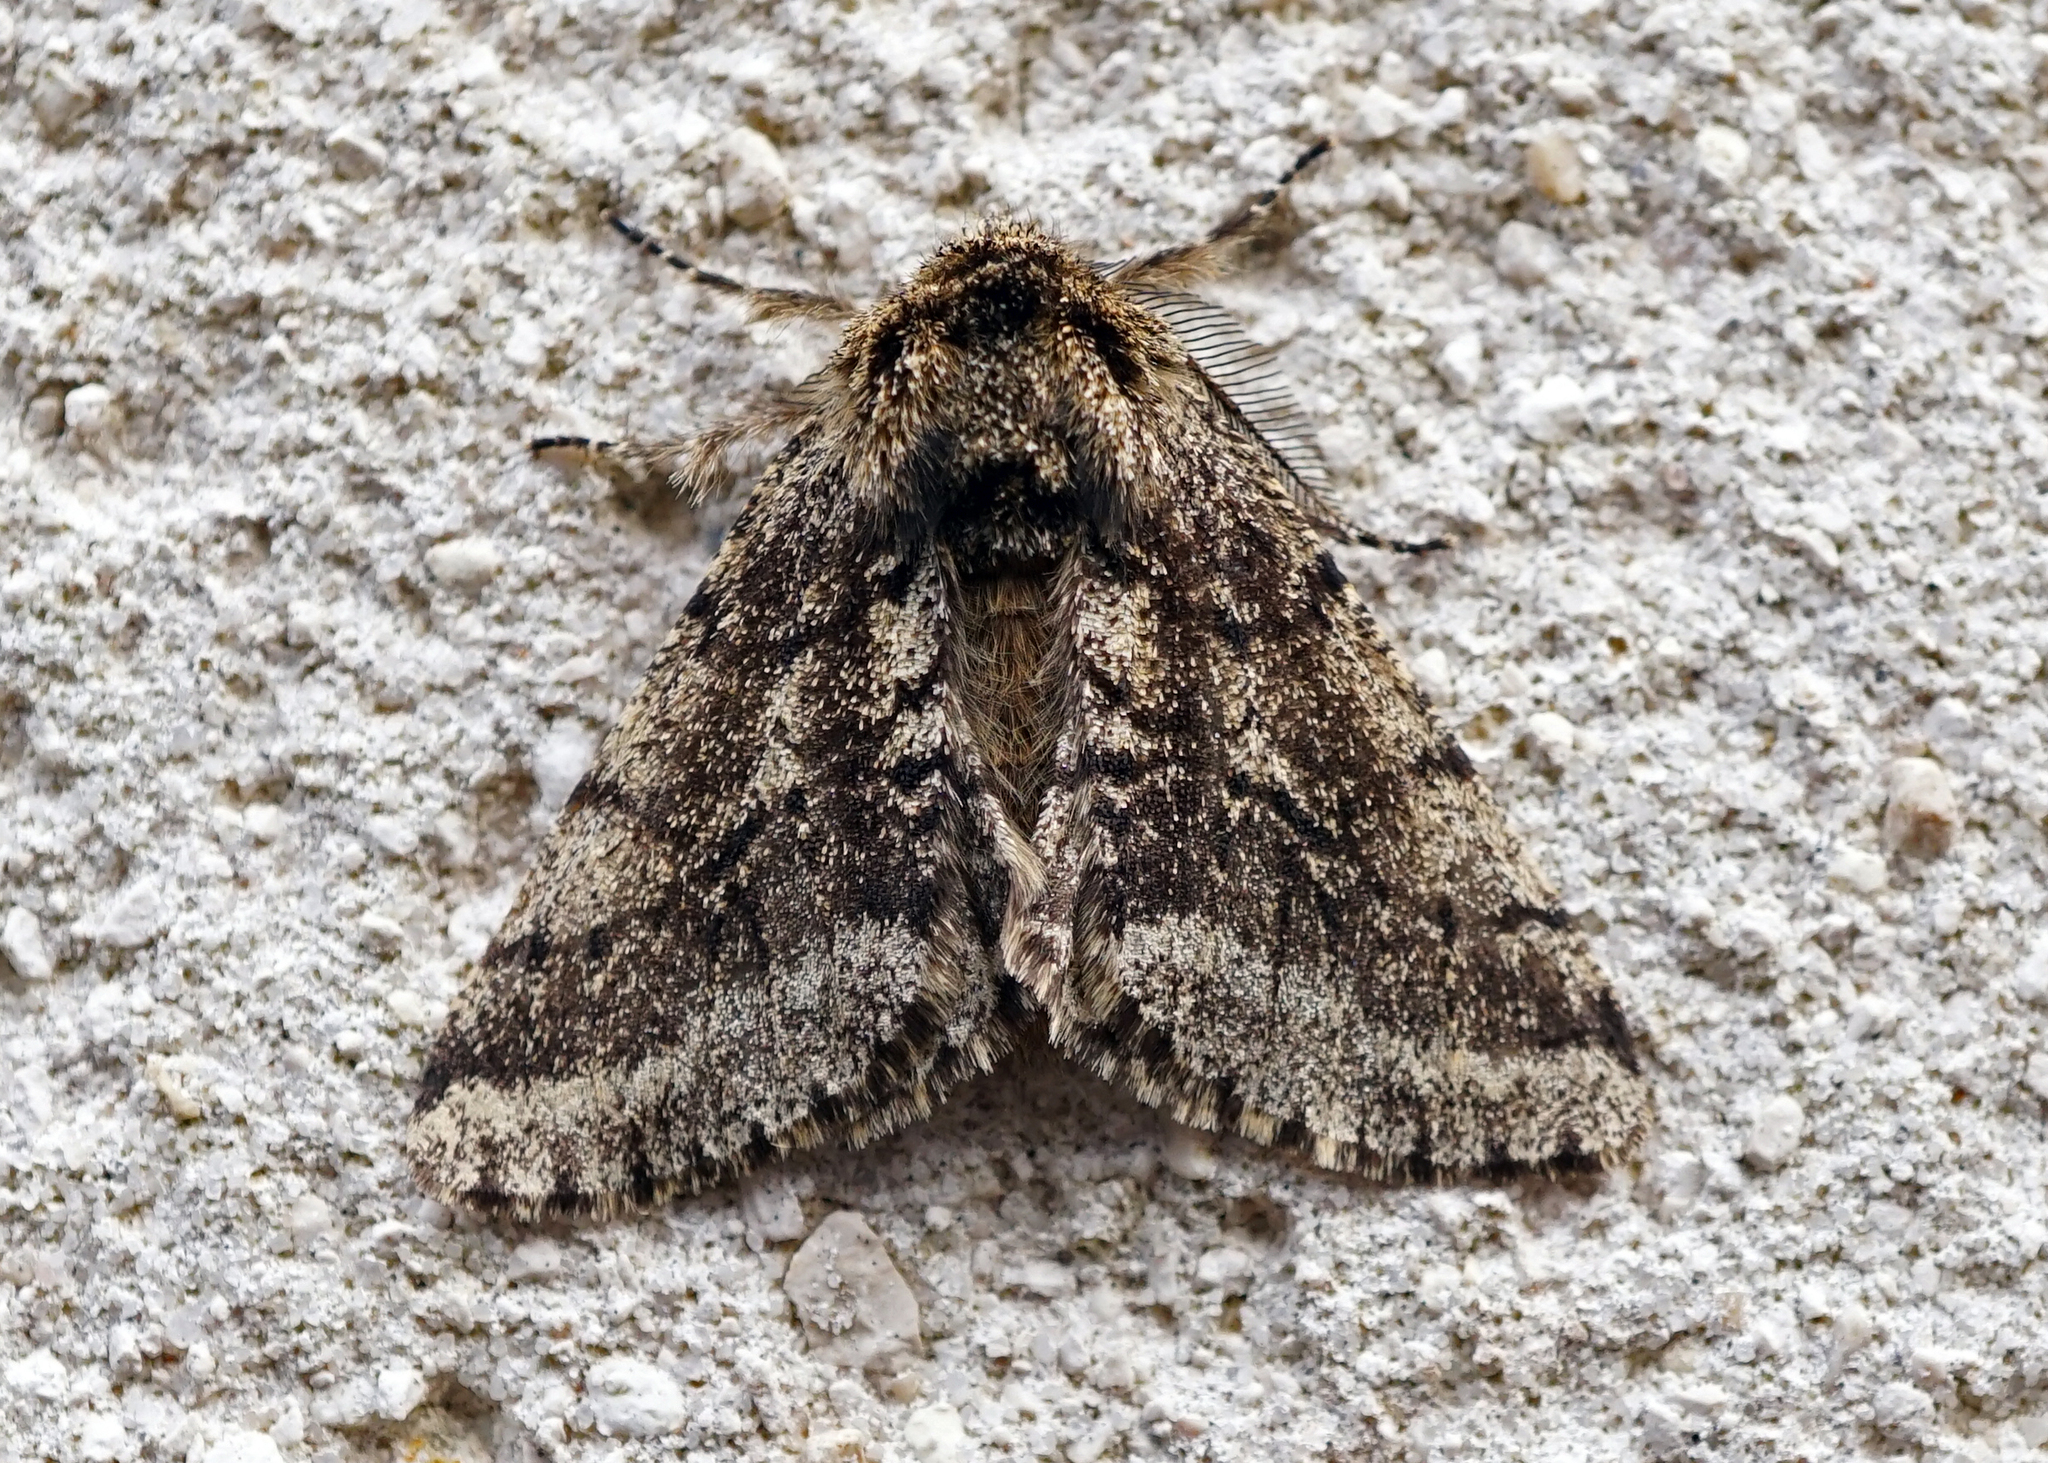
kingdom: Animalia
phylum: Arthropoda
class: Insecta
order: Lepidoptera
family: Geometridae
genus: Lycia
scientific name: Lycia hirtaria
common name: Brindled beauty
